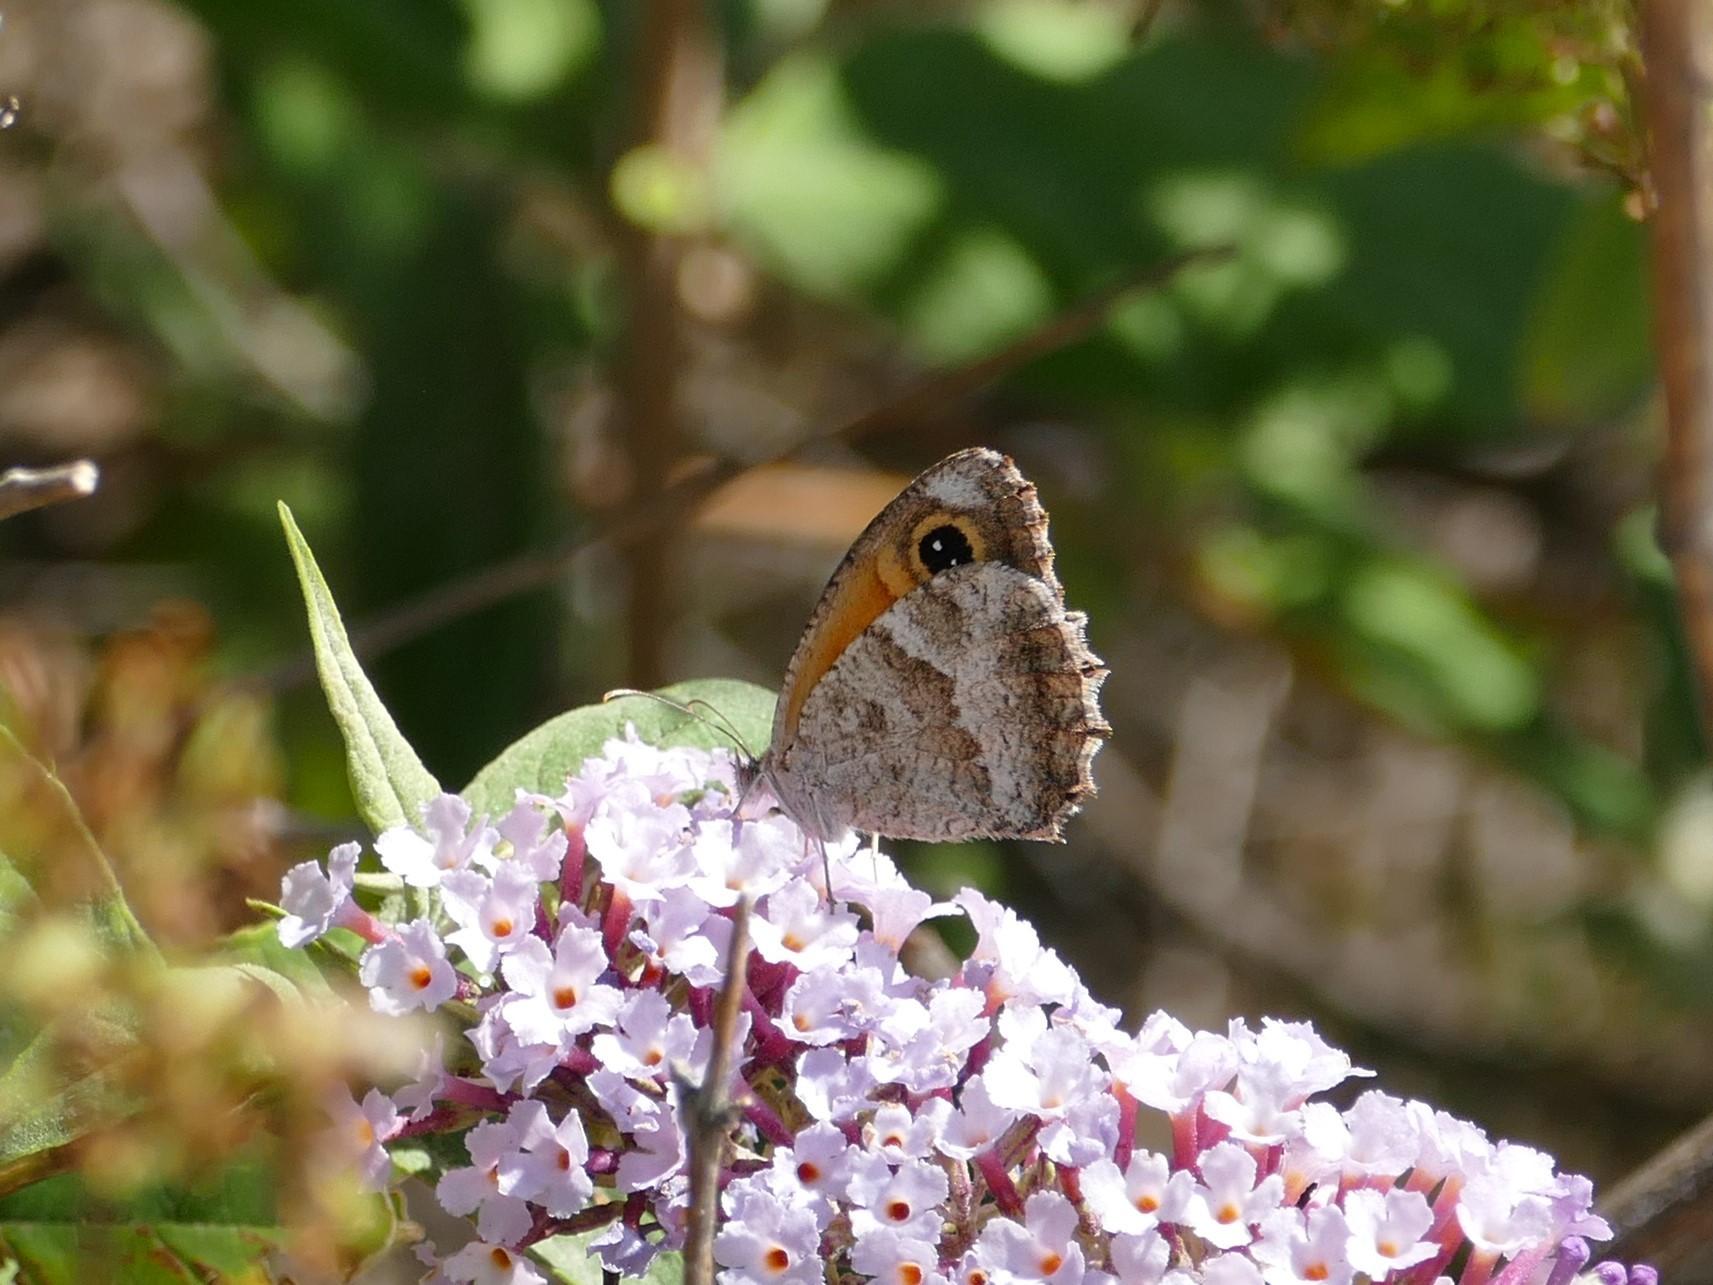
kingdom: Animalia
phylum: Arthropoda
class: Insecta
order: Lepidoptera
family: Nymphalidae
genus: Pyronia
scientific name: Pyronia cecilia
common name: Southern gatekeeper
